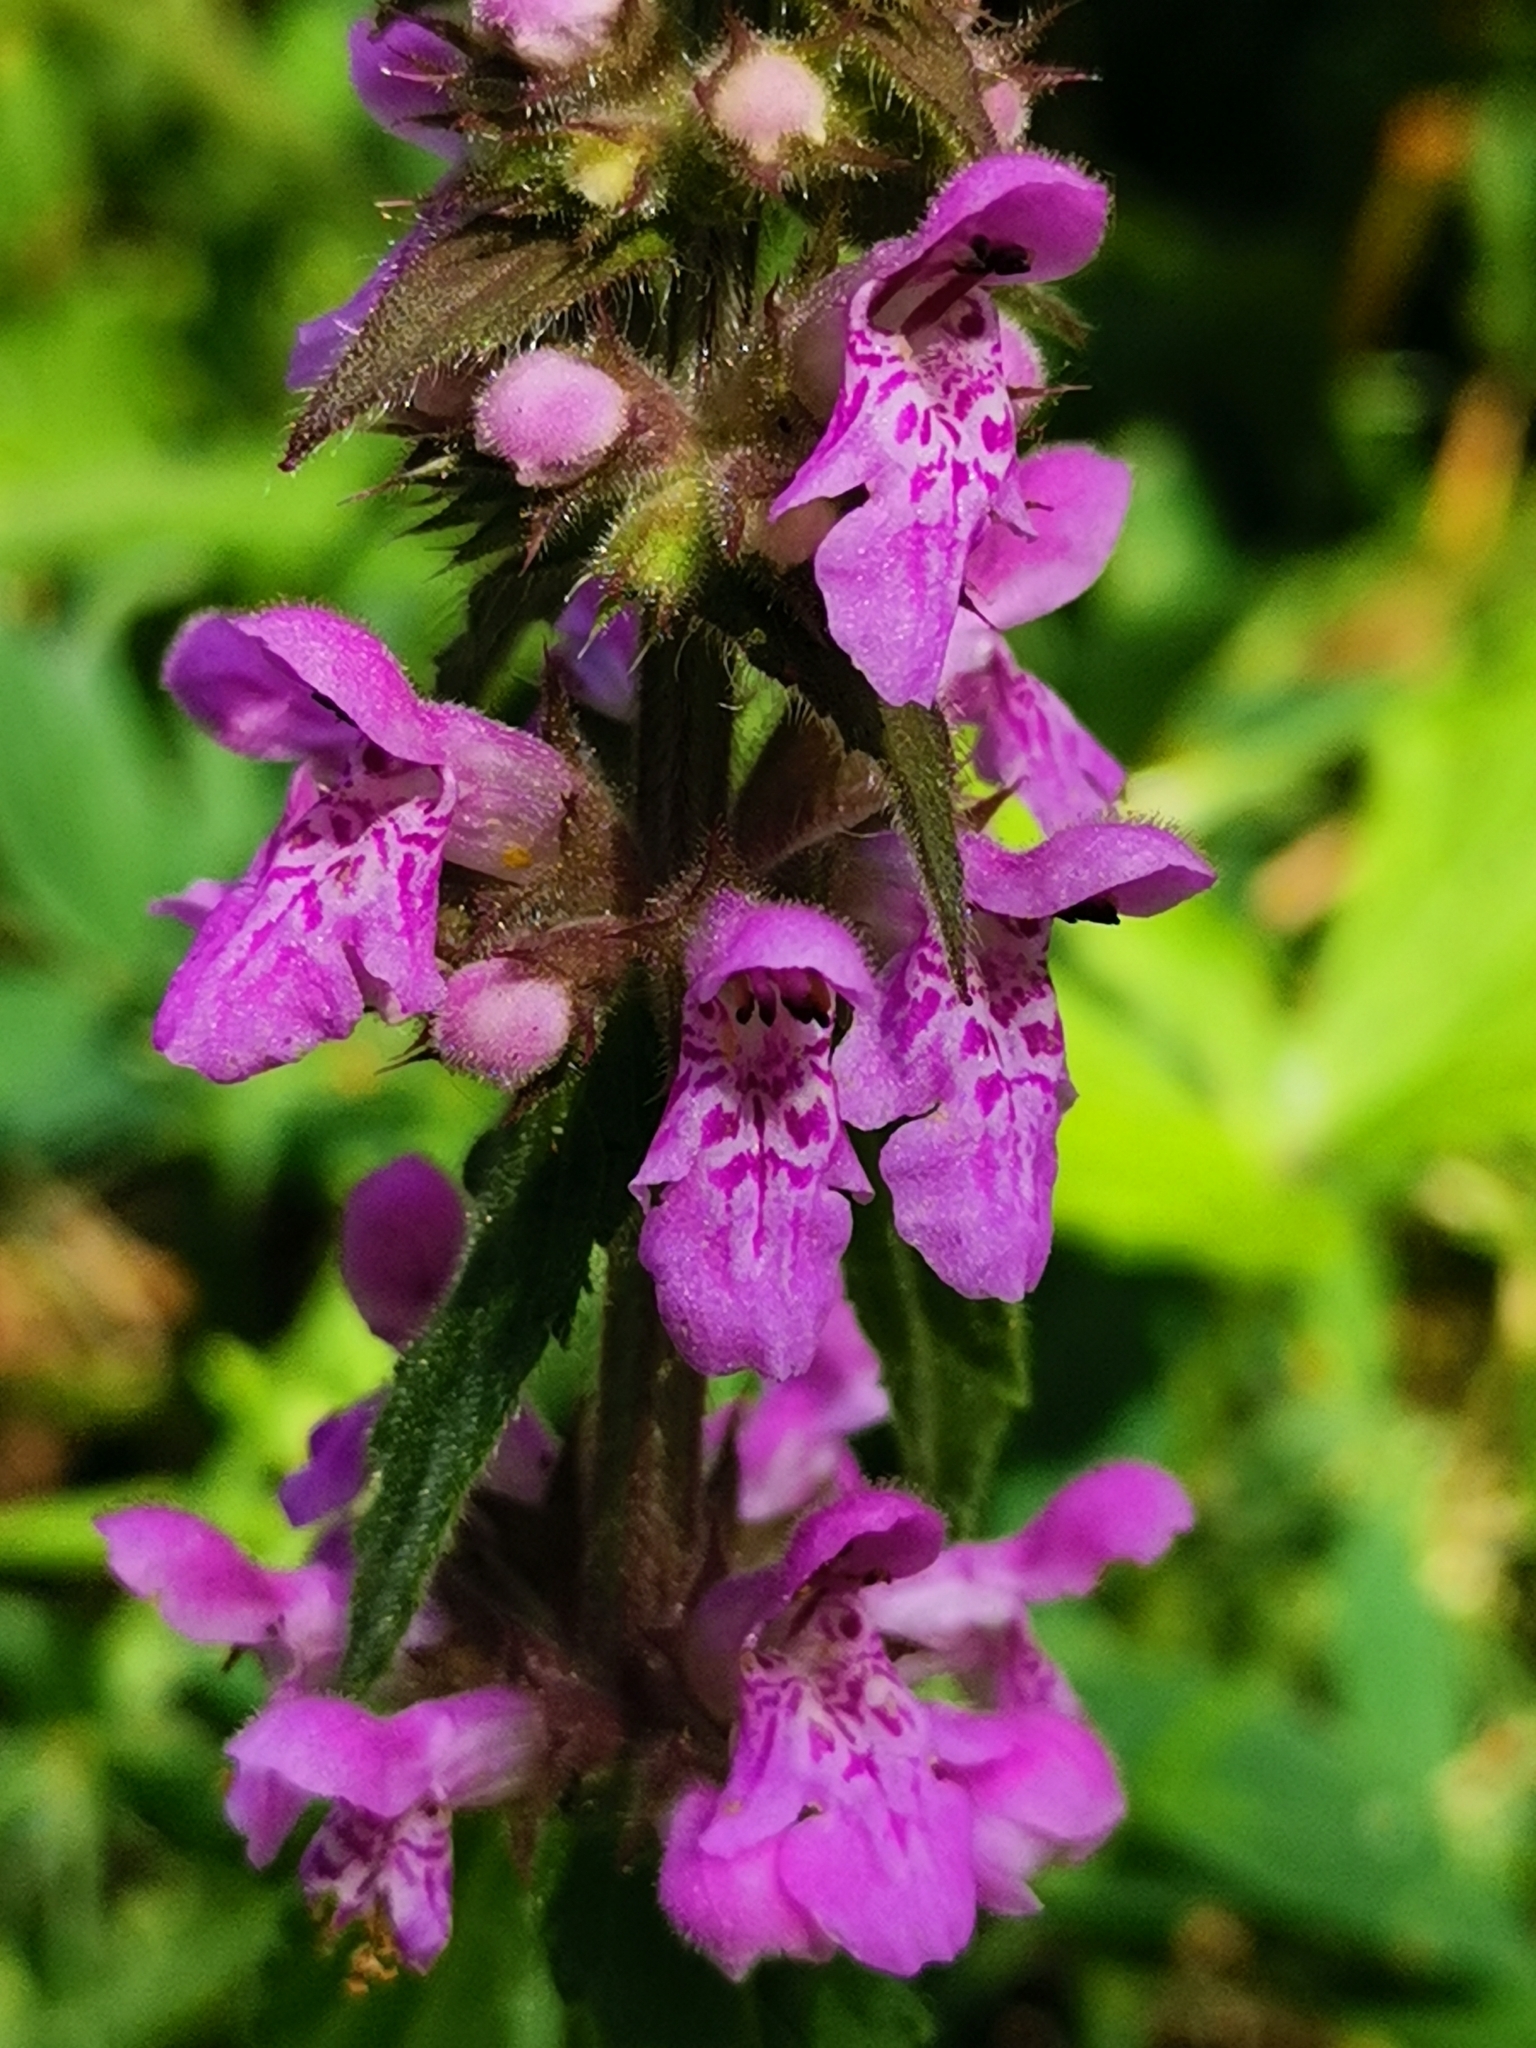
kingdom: Plantae
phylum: Tracheophyta
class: Magnoliopsida
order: Lamiales
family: Lamiaceae
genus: Stachys
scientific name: Stachys palustris
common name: Marsh woundwort
